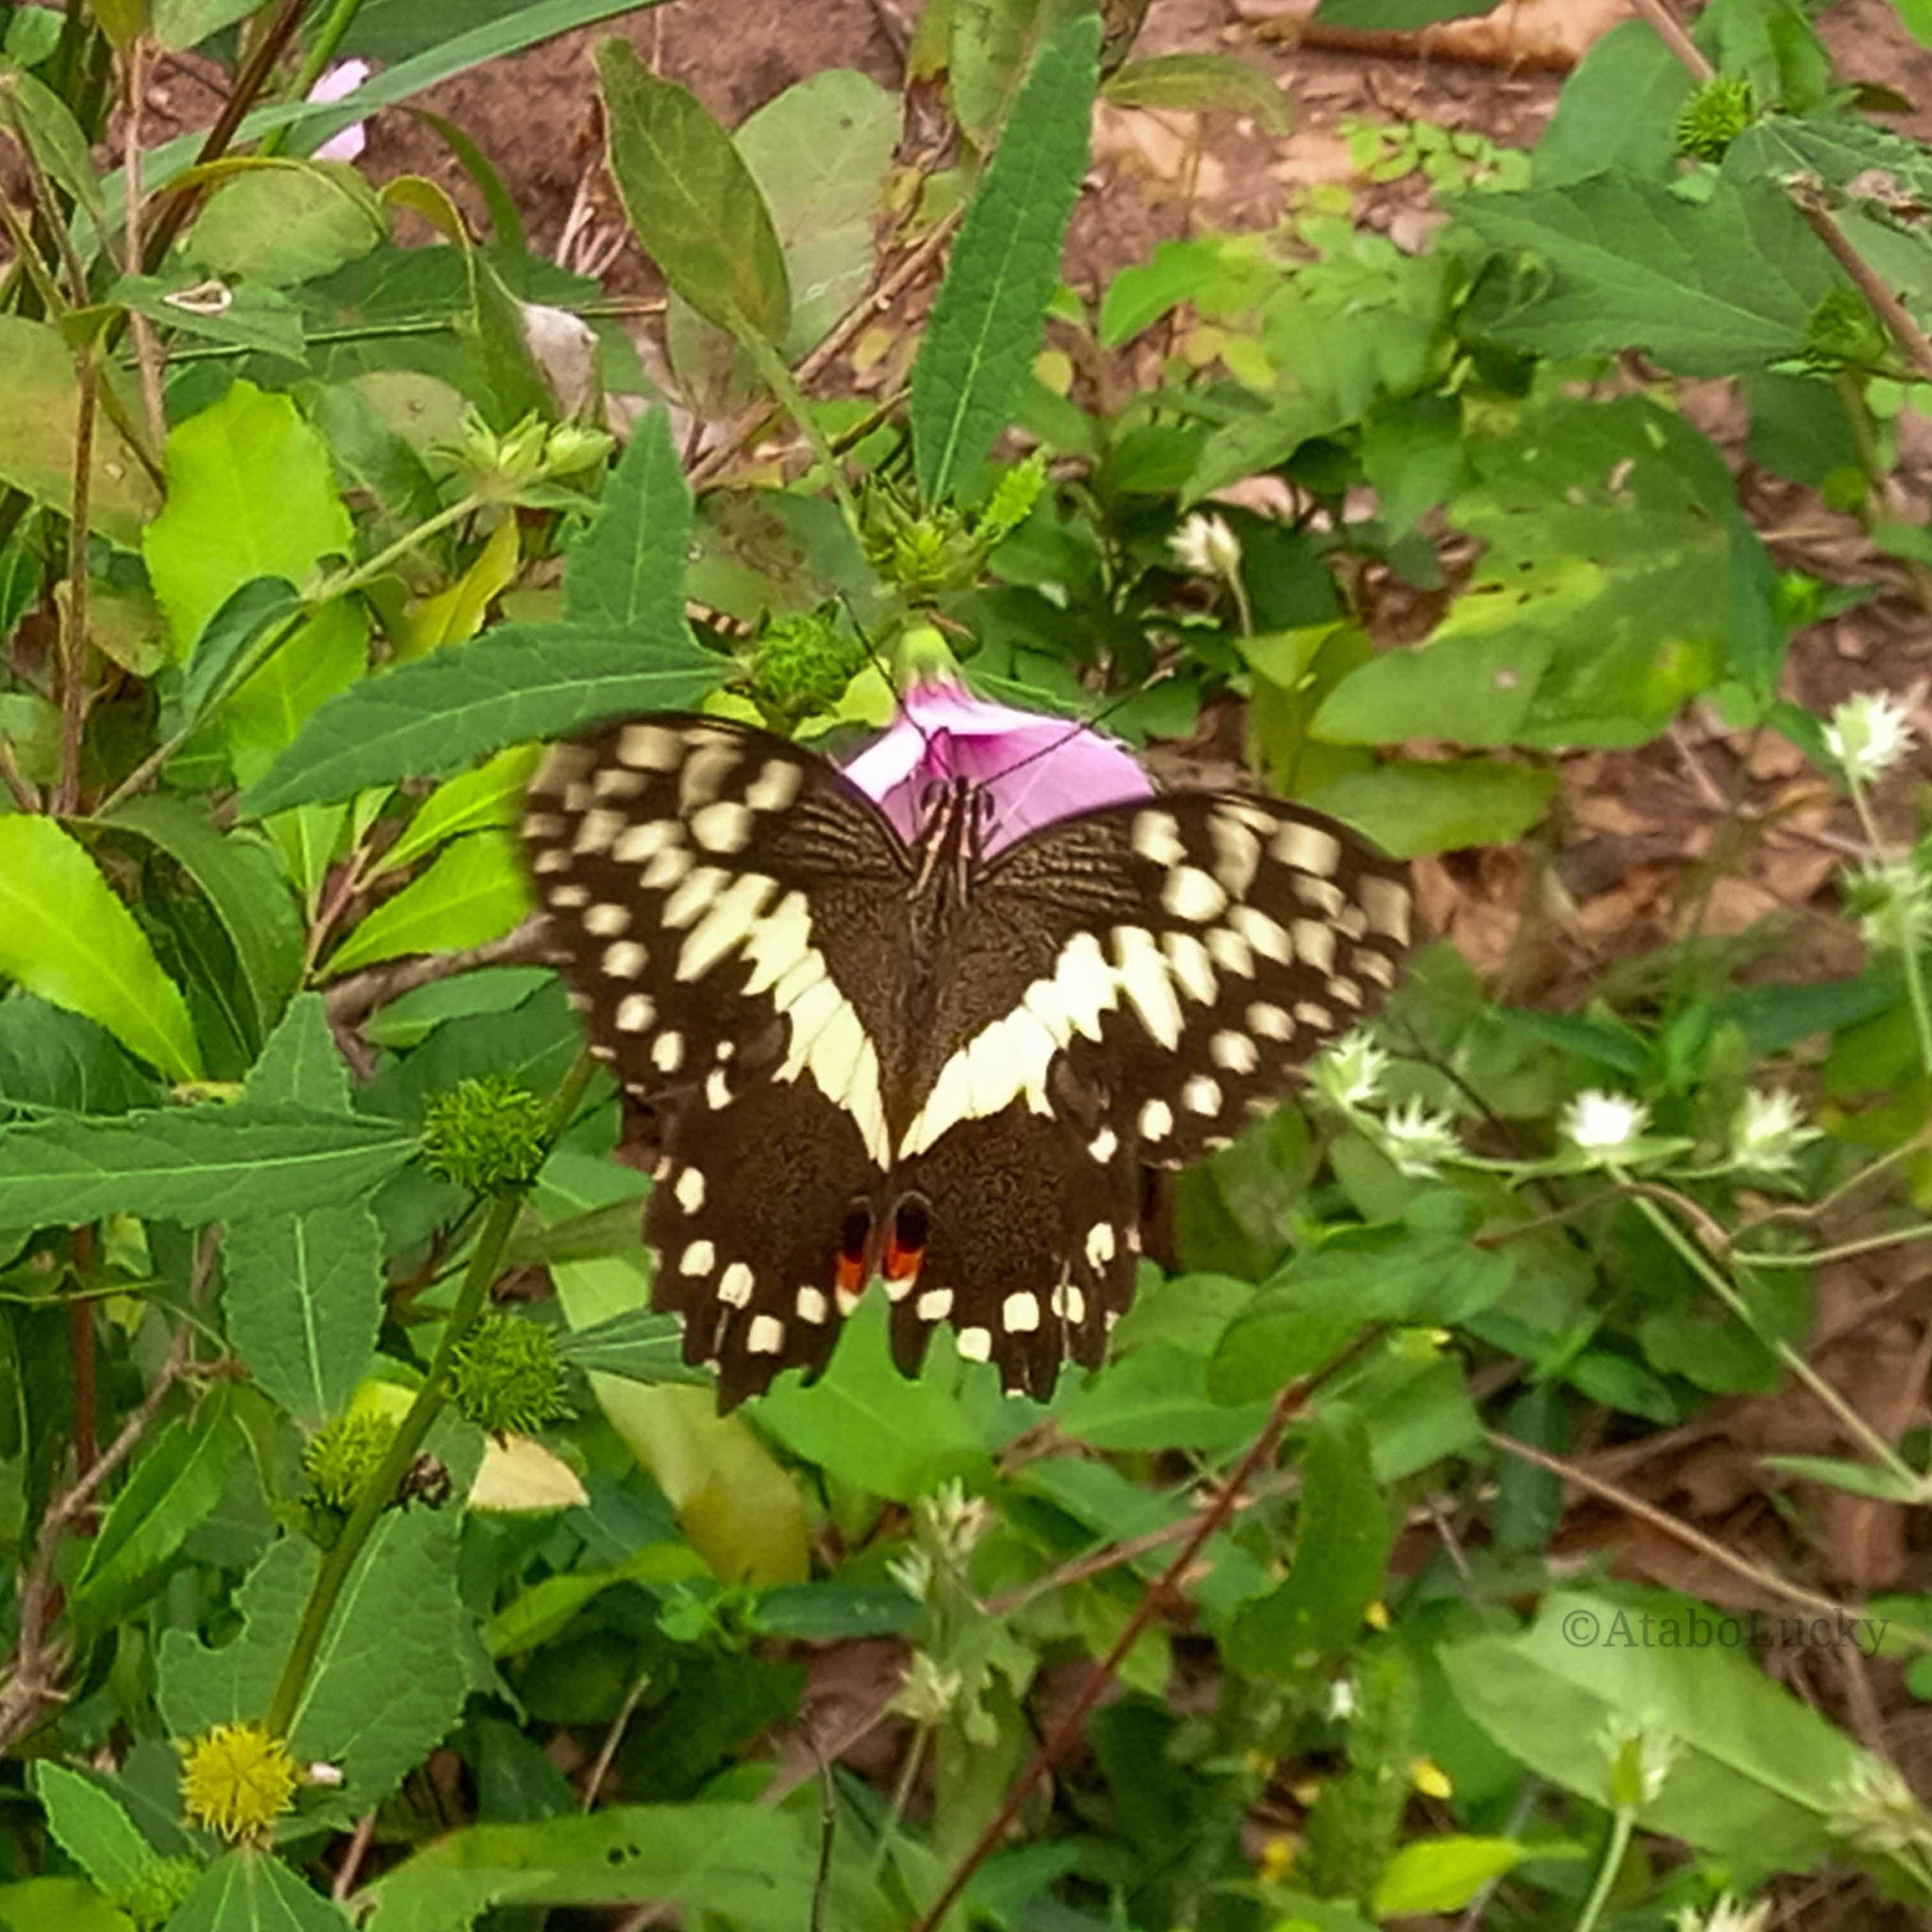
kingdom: Animalia
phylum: Arthropoda
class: Insecta
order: Lepidoptera
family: Papilionidae
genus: Papilio
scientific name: Papilio demodocus
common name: Christmas butterfly
